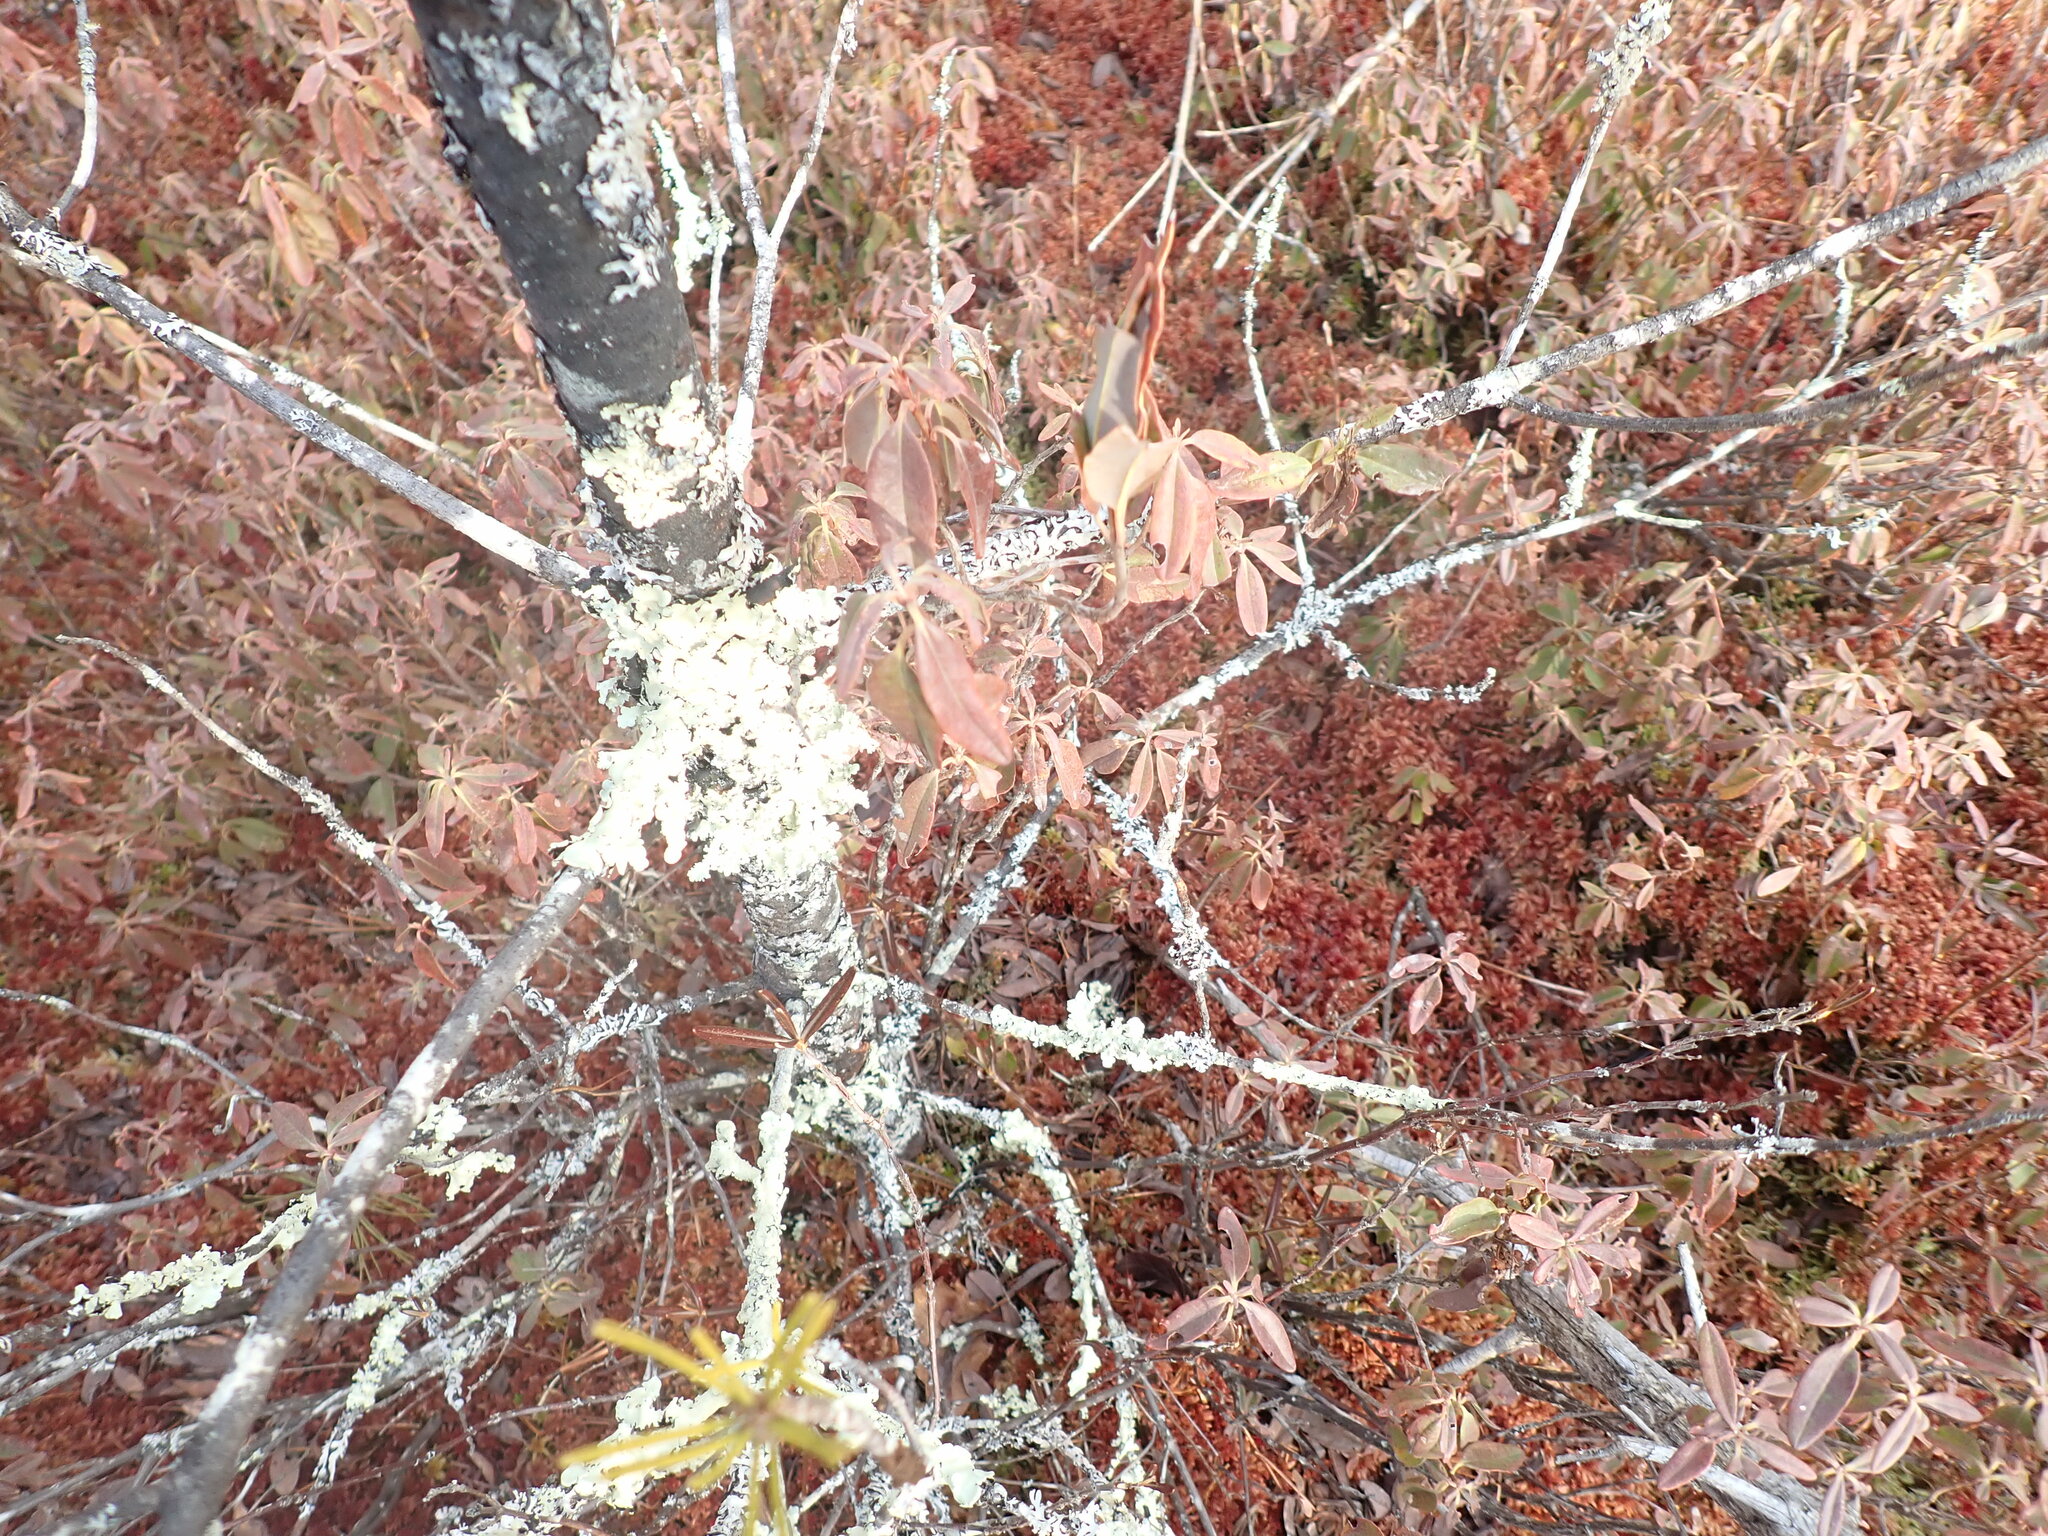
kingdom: Plantae
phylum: Tracheophyta
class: Magnoliopsida
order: Ericales
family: Ericaceae
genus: Kalmia
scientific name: Kalmia angustifolia
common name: Sheep-laurel
